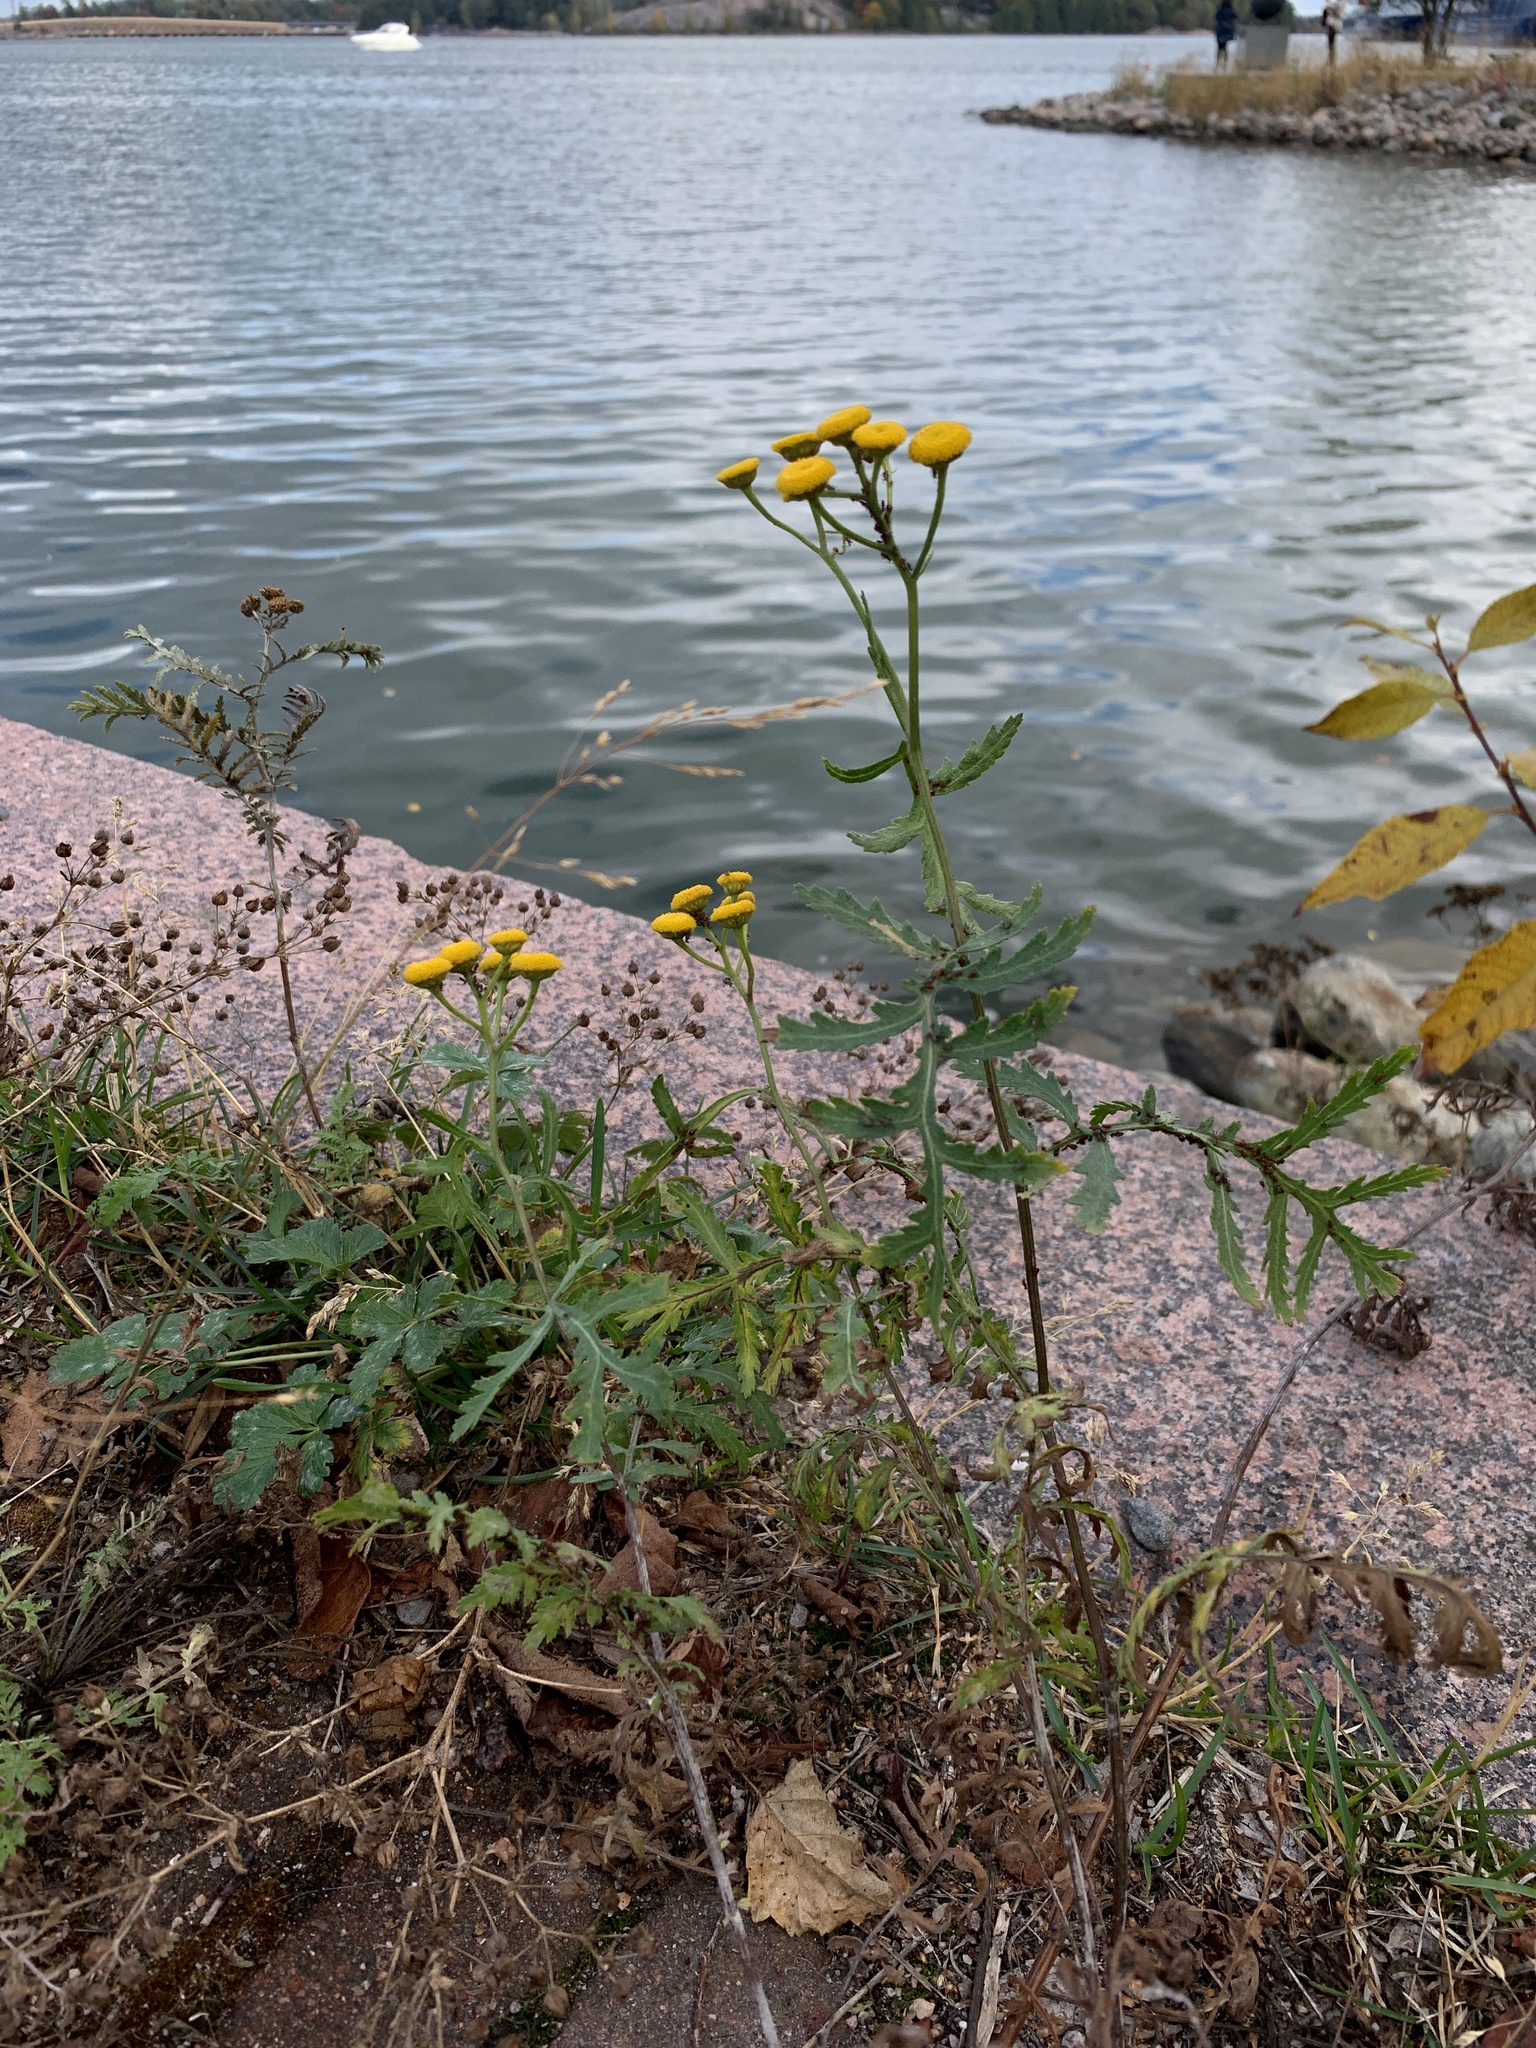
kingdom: Plantae
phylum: Tracheophyta
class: Magnoliopsida
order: Asterales
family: Asteraceae
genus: Tanacetum
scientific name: Tanacetum vulgare
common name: Common tansy
